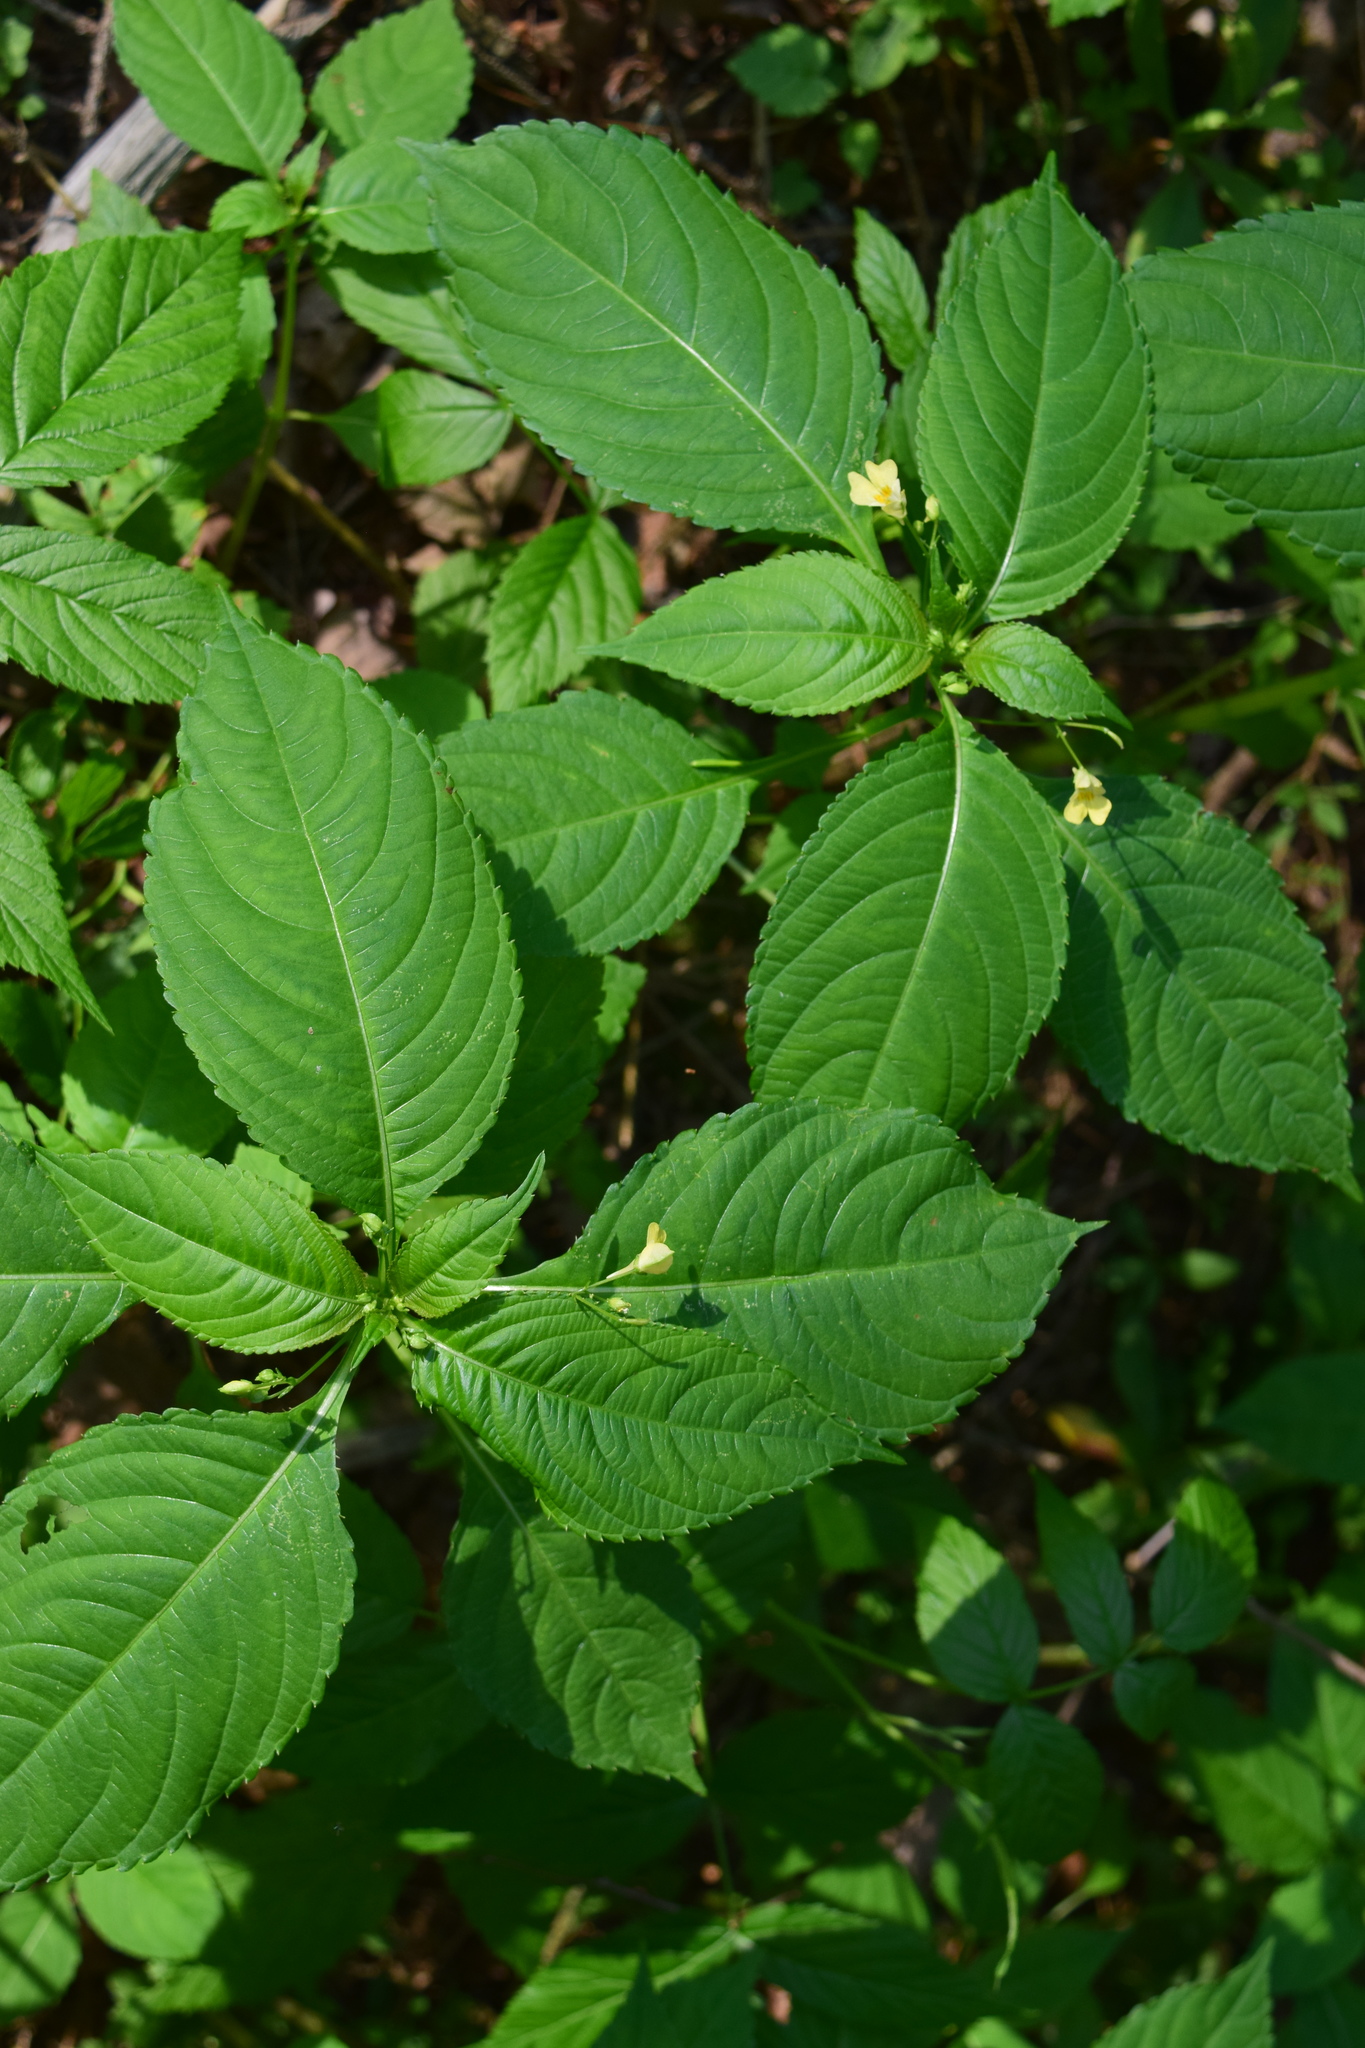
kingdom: Plantae
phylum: Tracheophyta
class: Magnoliopsida
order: Ericales
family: Balsaminaceae
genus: Impatiens
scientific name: Impatiens parviflora
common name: Small balsam
